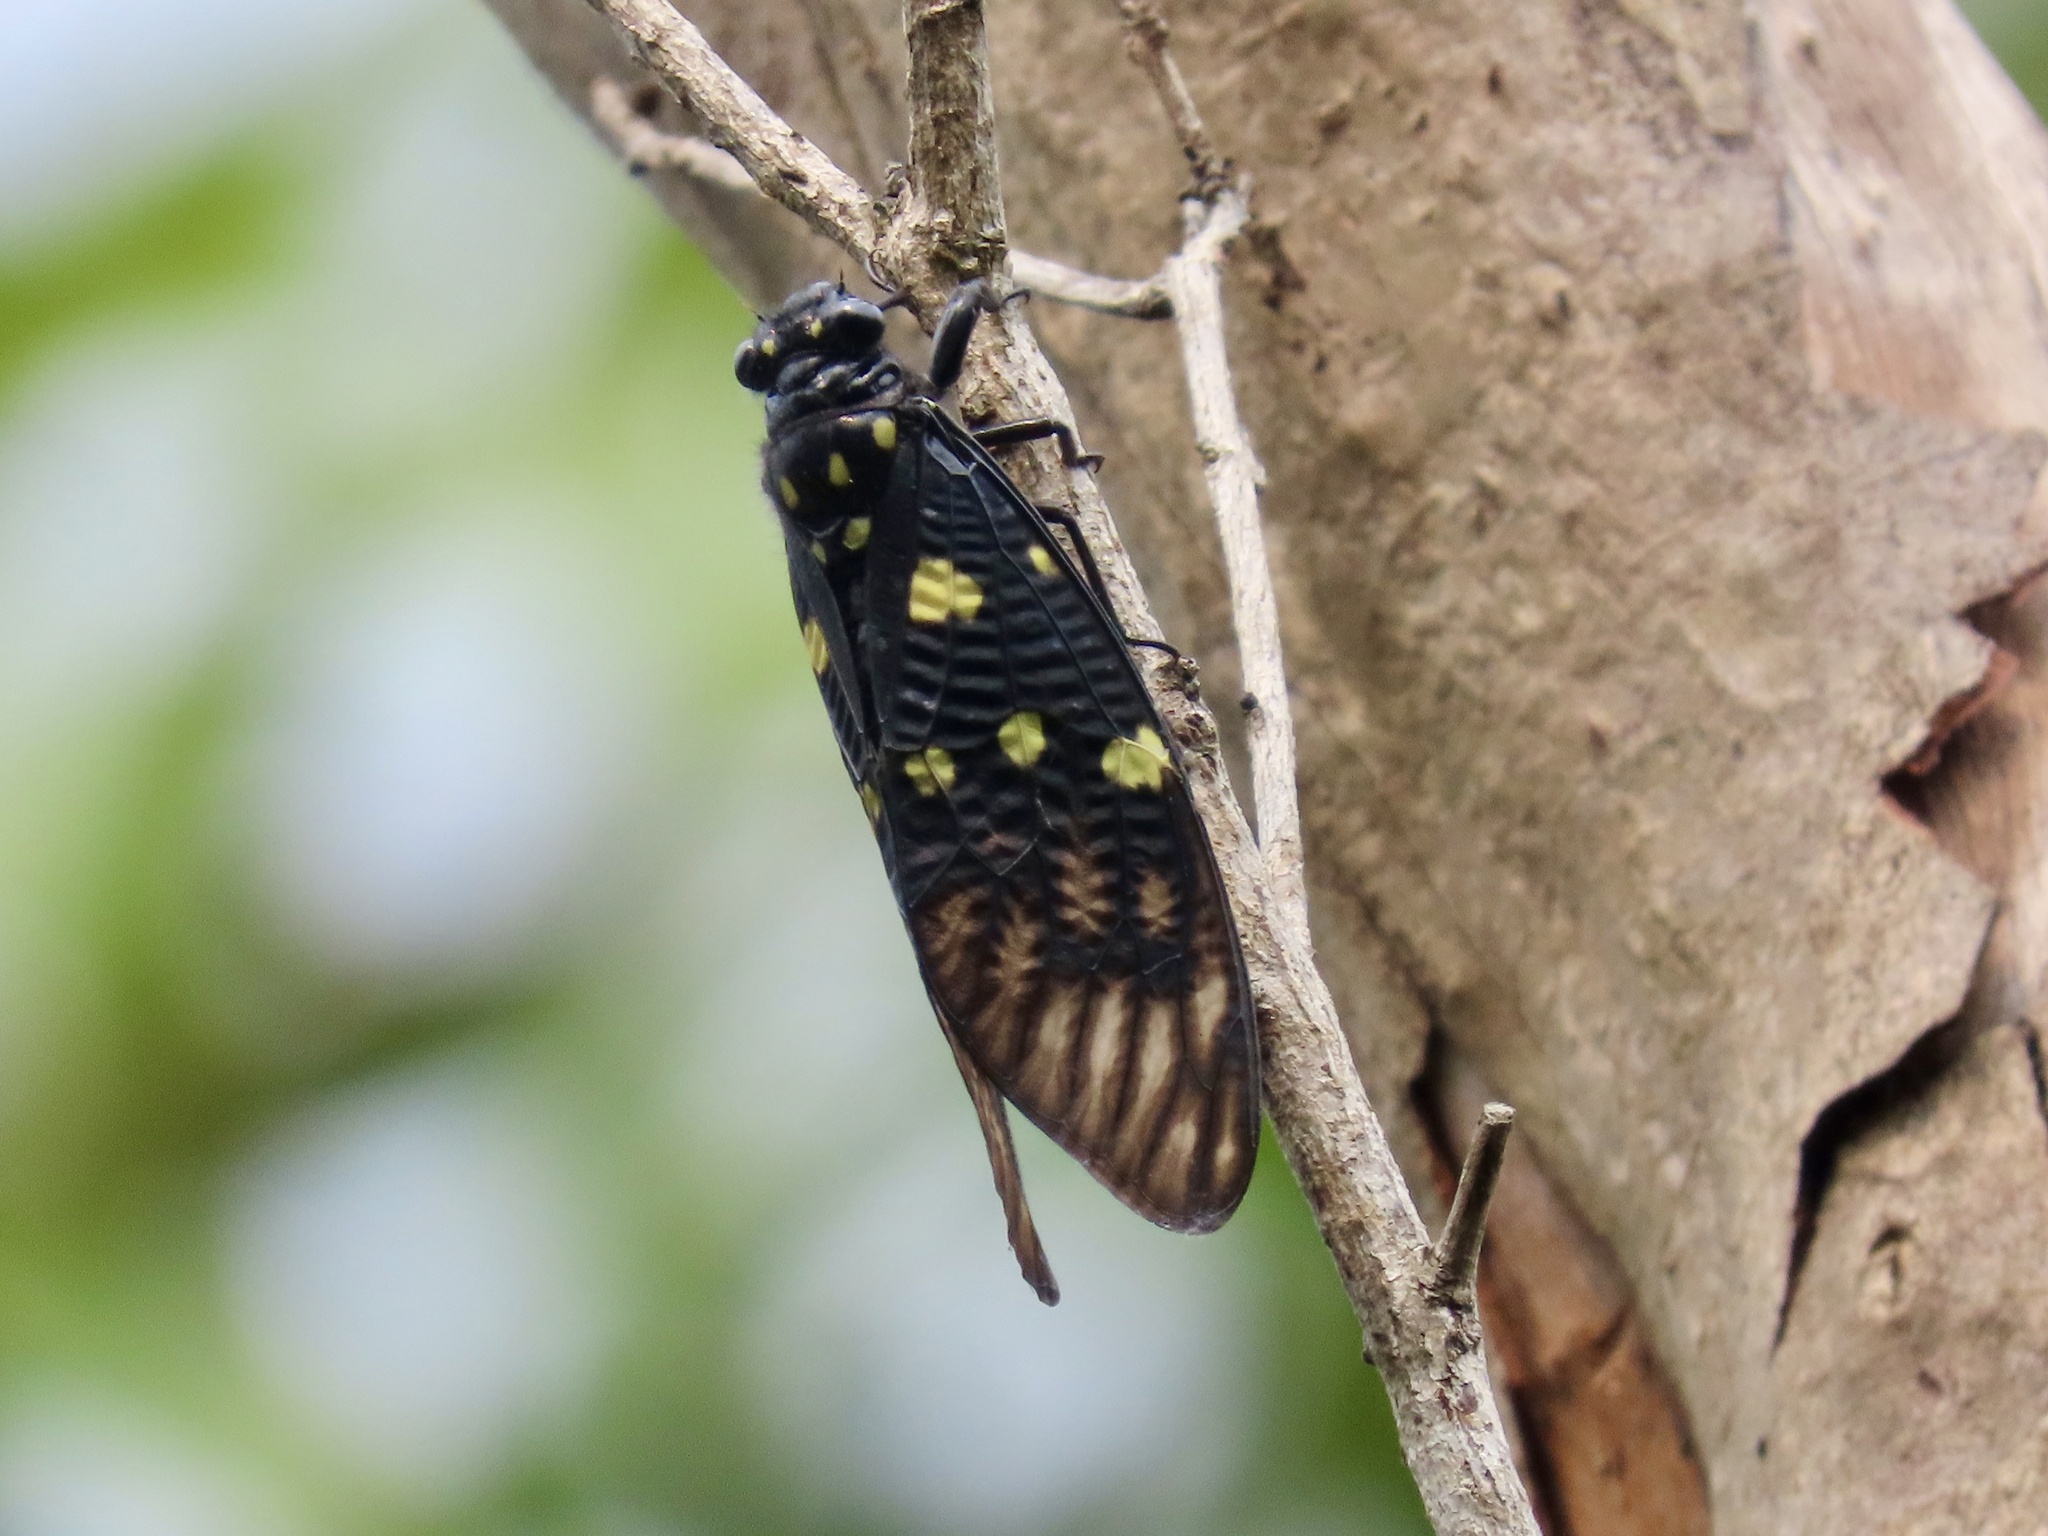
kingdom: Animalia
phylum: Arthropoda
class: Insecta
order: Hemiptera
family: Cicadidae
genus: Gaeana
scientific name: Gaeana maculata
